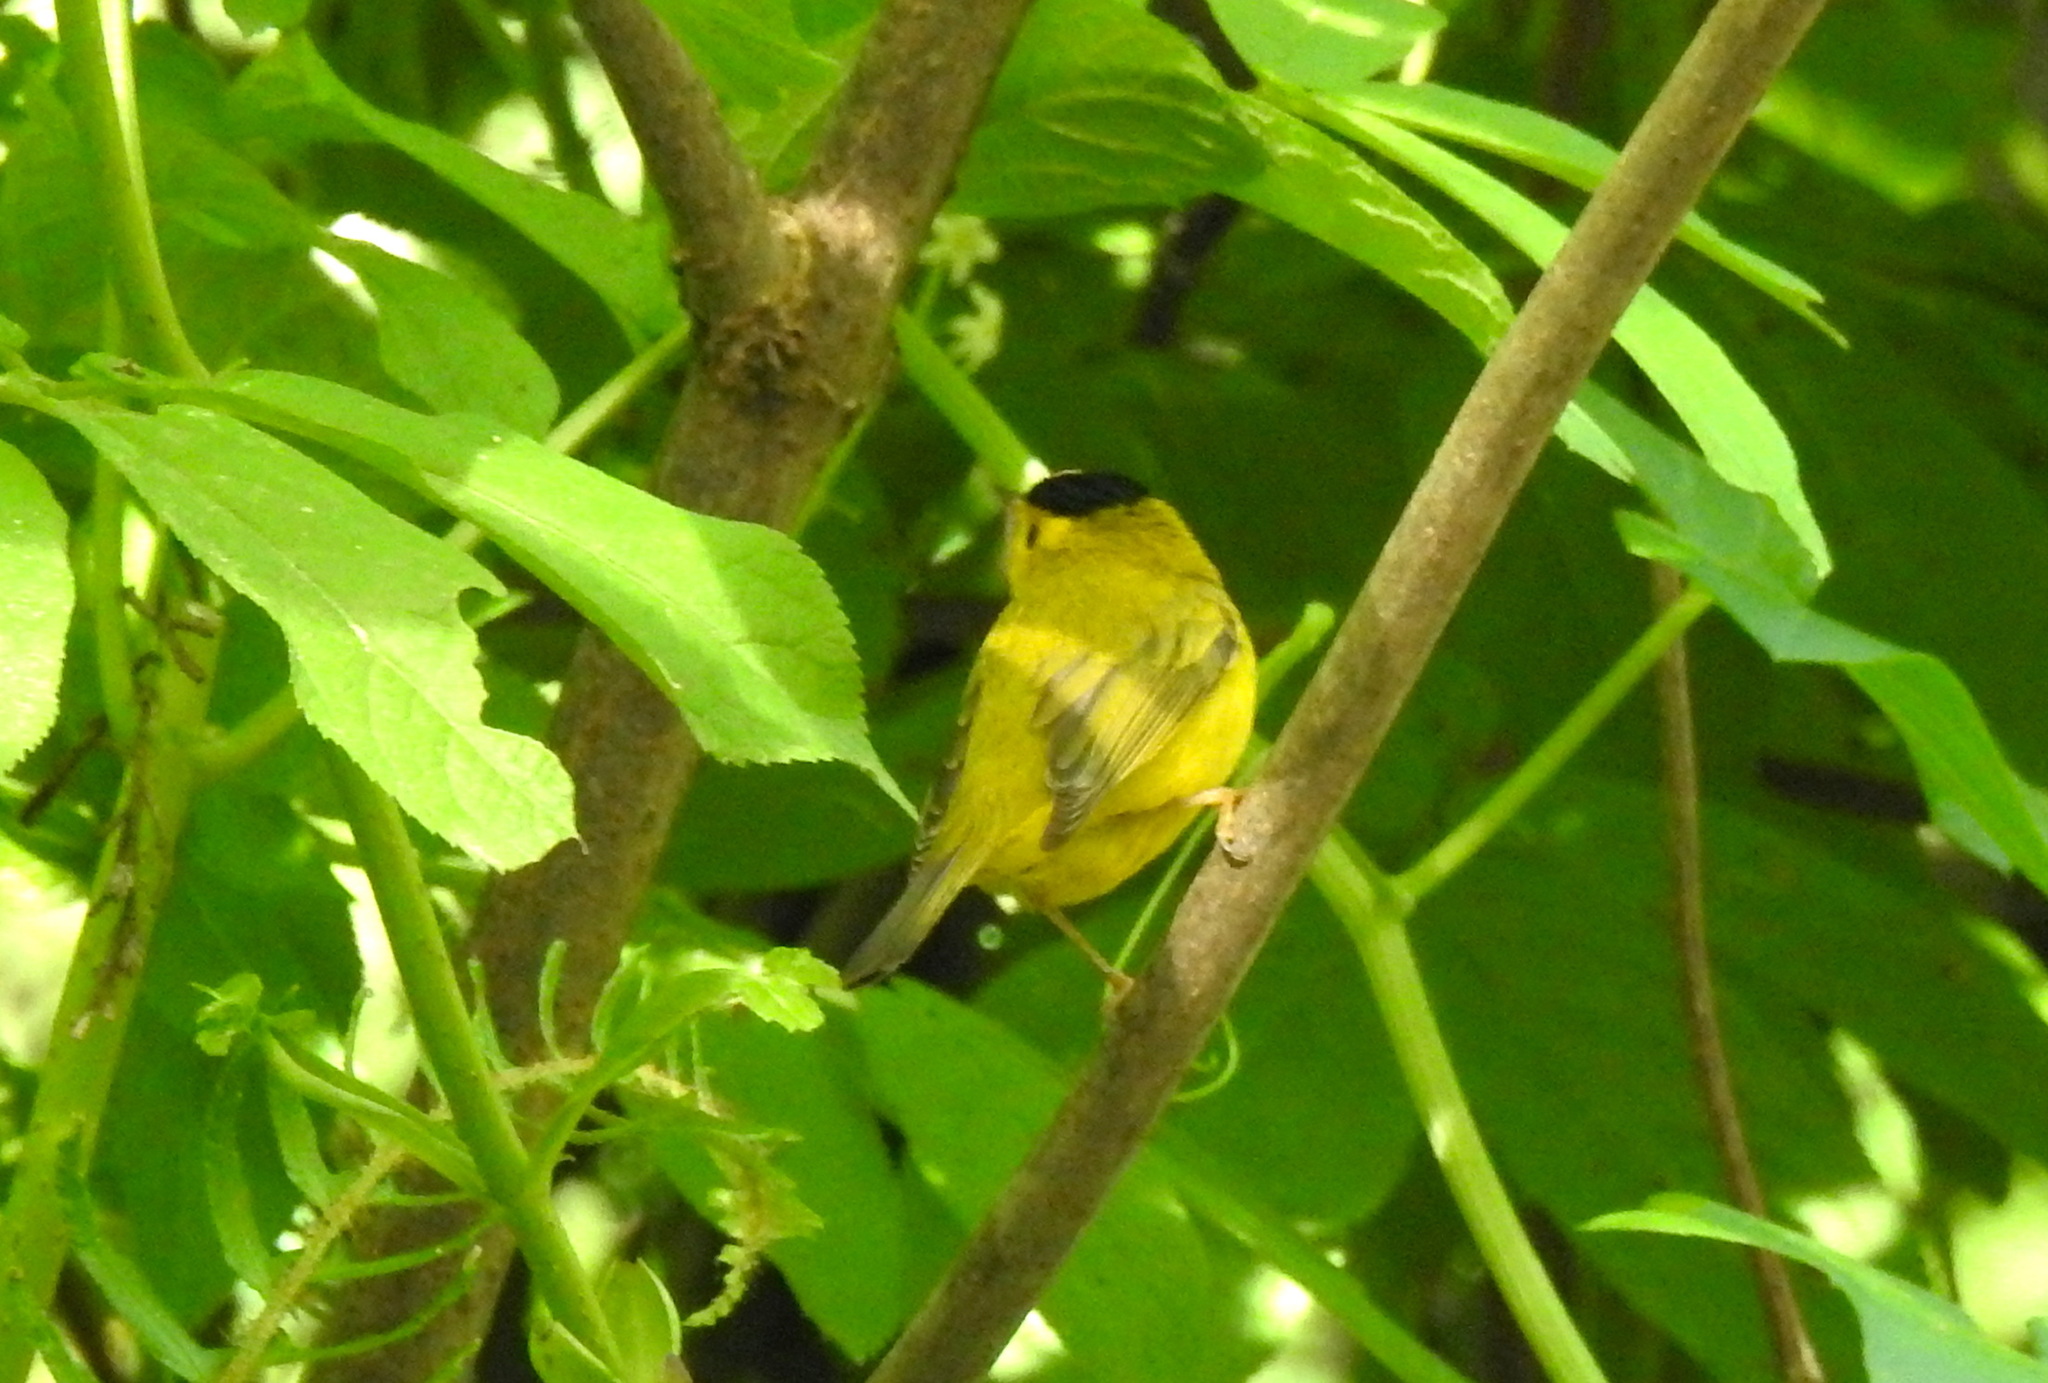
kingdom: Animalia
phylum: Chordata
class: Aves
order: Passeriformes
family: Parulidae
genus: Cardellina
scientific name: Cardellina pusilla
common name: Wilson's warbler
